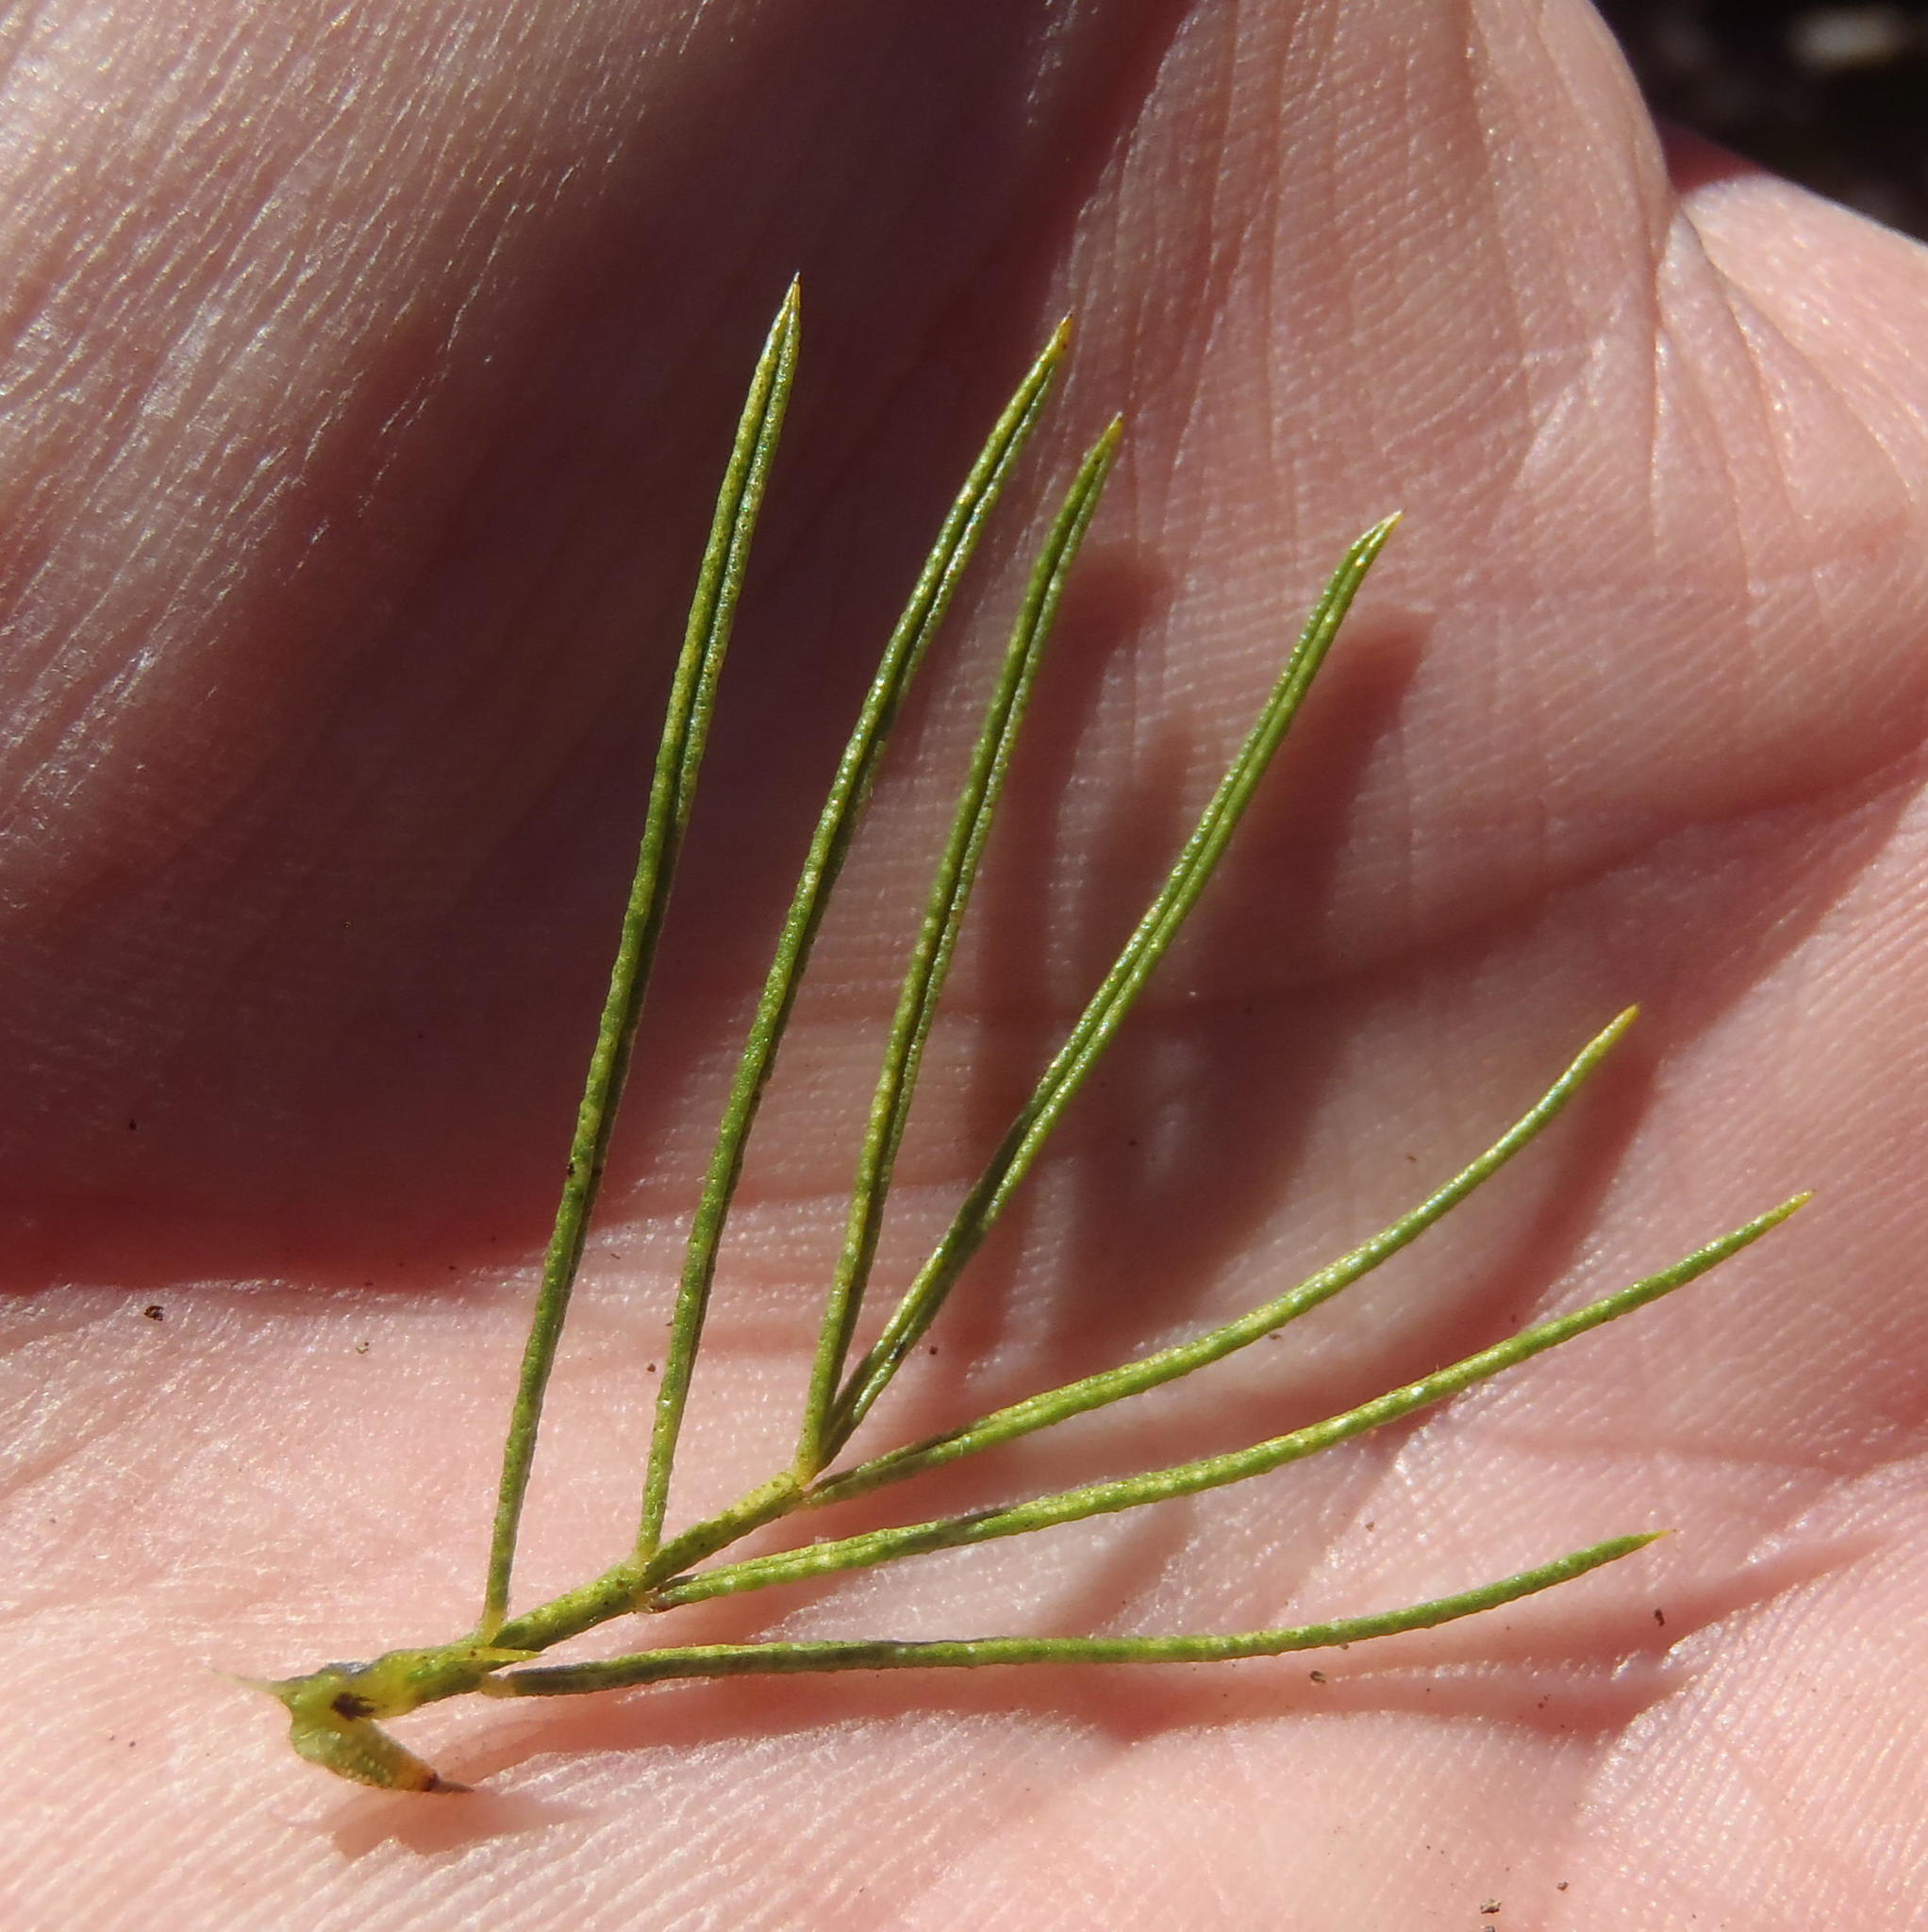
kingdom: Plantae
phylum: Tracheophyta
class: Magnoliopsida
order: Fabales
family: Fabaceae
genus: Psoralea
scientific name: Psoralea kougaensis
